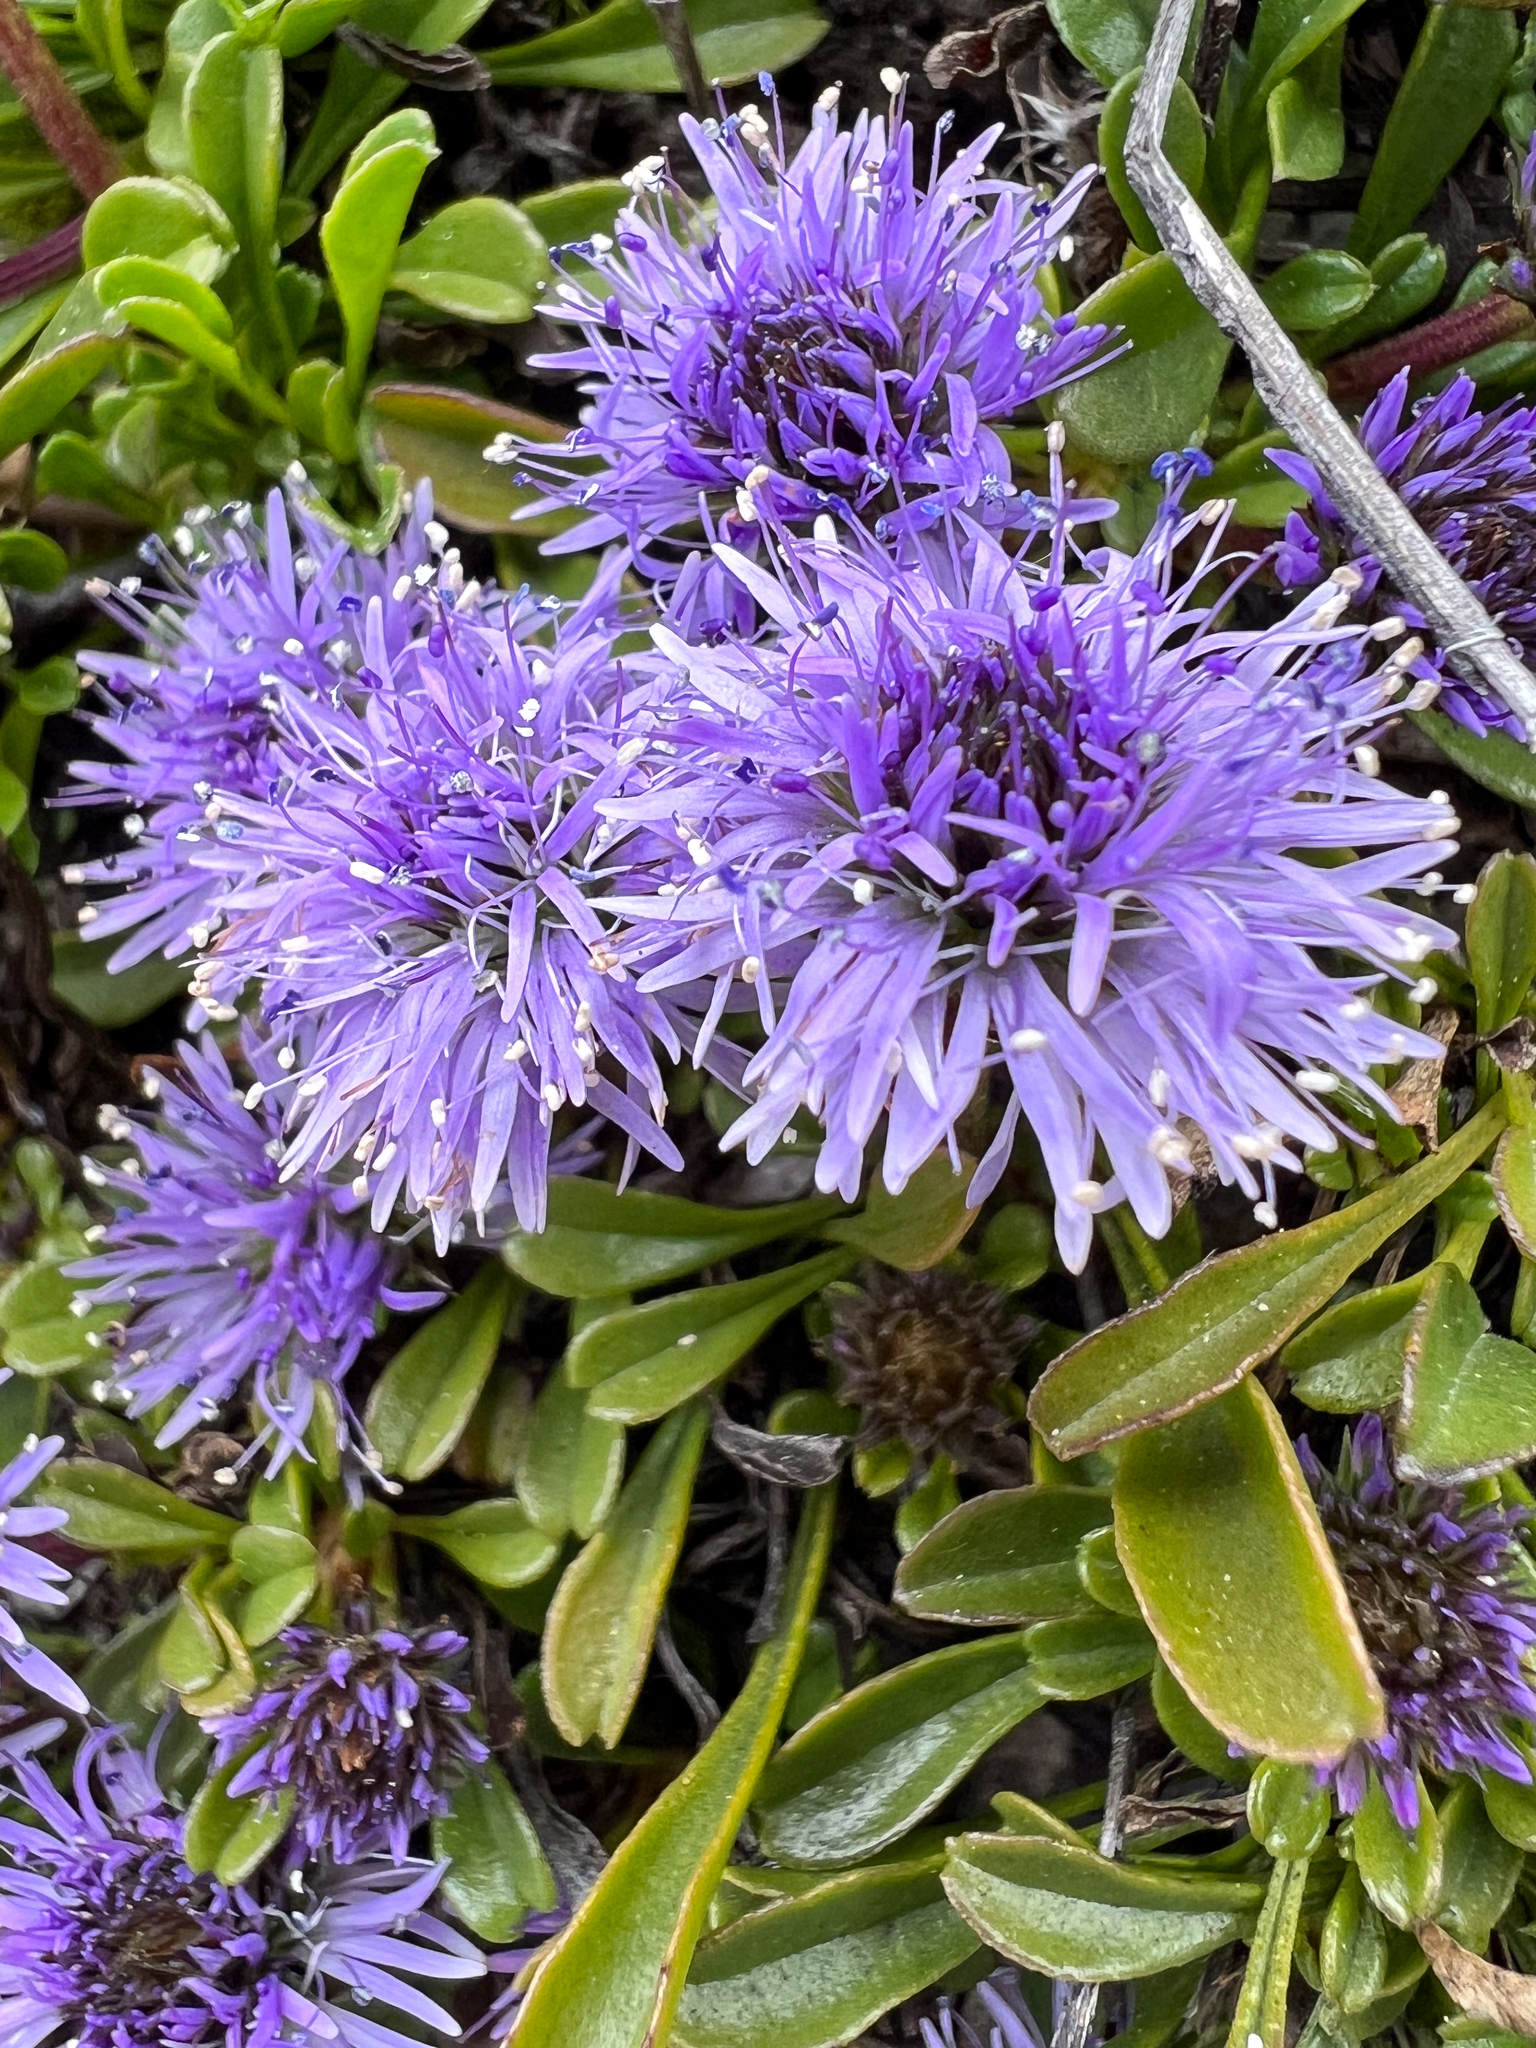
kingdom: Plantae
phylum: Tracheophyta
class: Magnoliopsida
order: Lamiales
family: Plantaginaceae
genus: Globularia
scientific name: Globularia cordifolia
